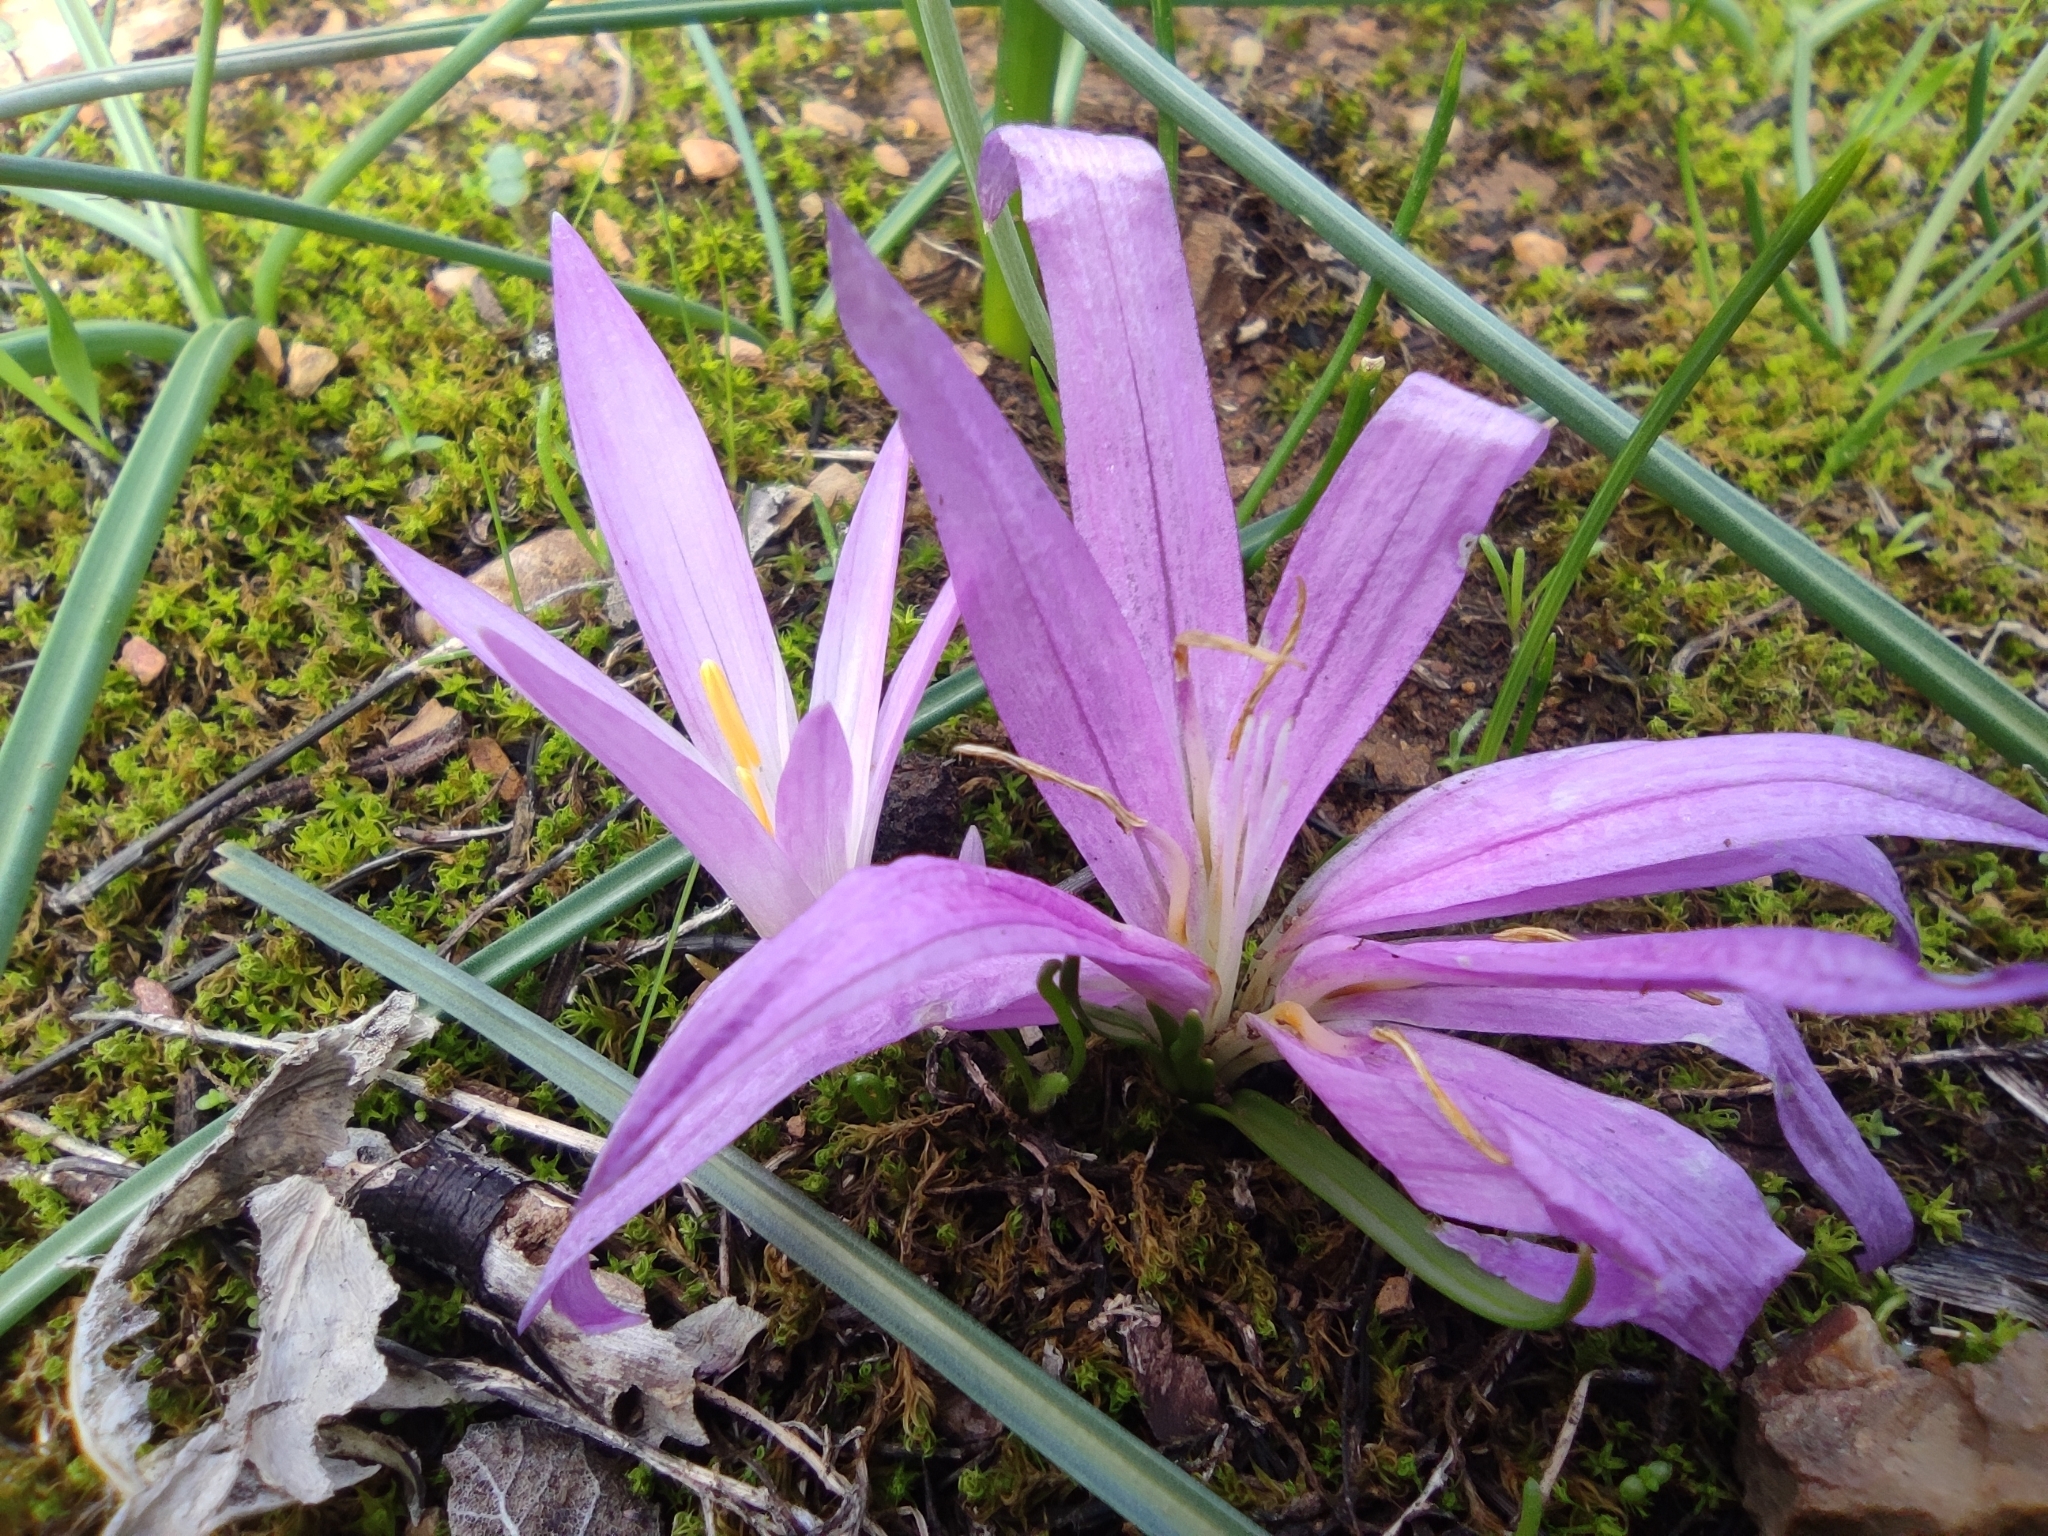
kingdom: Plantae
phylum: Tracheophyta
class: Liliopsida
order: Liliales
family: Colchicaceae
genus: Colchicum
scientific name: Colchicum lusitanum
